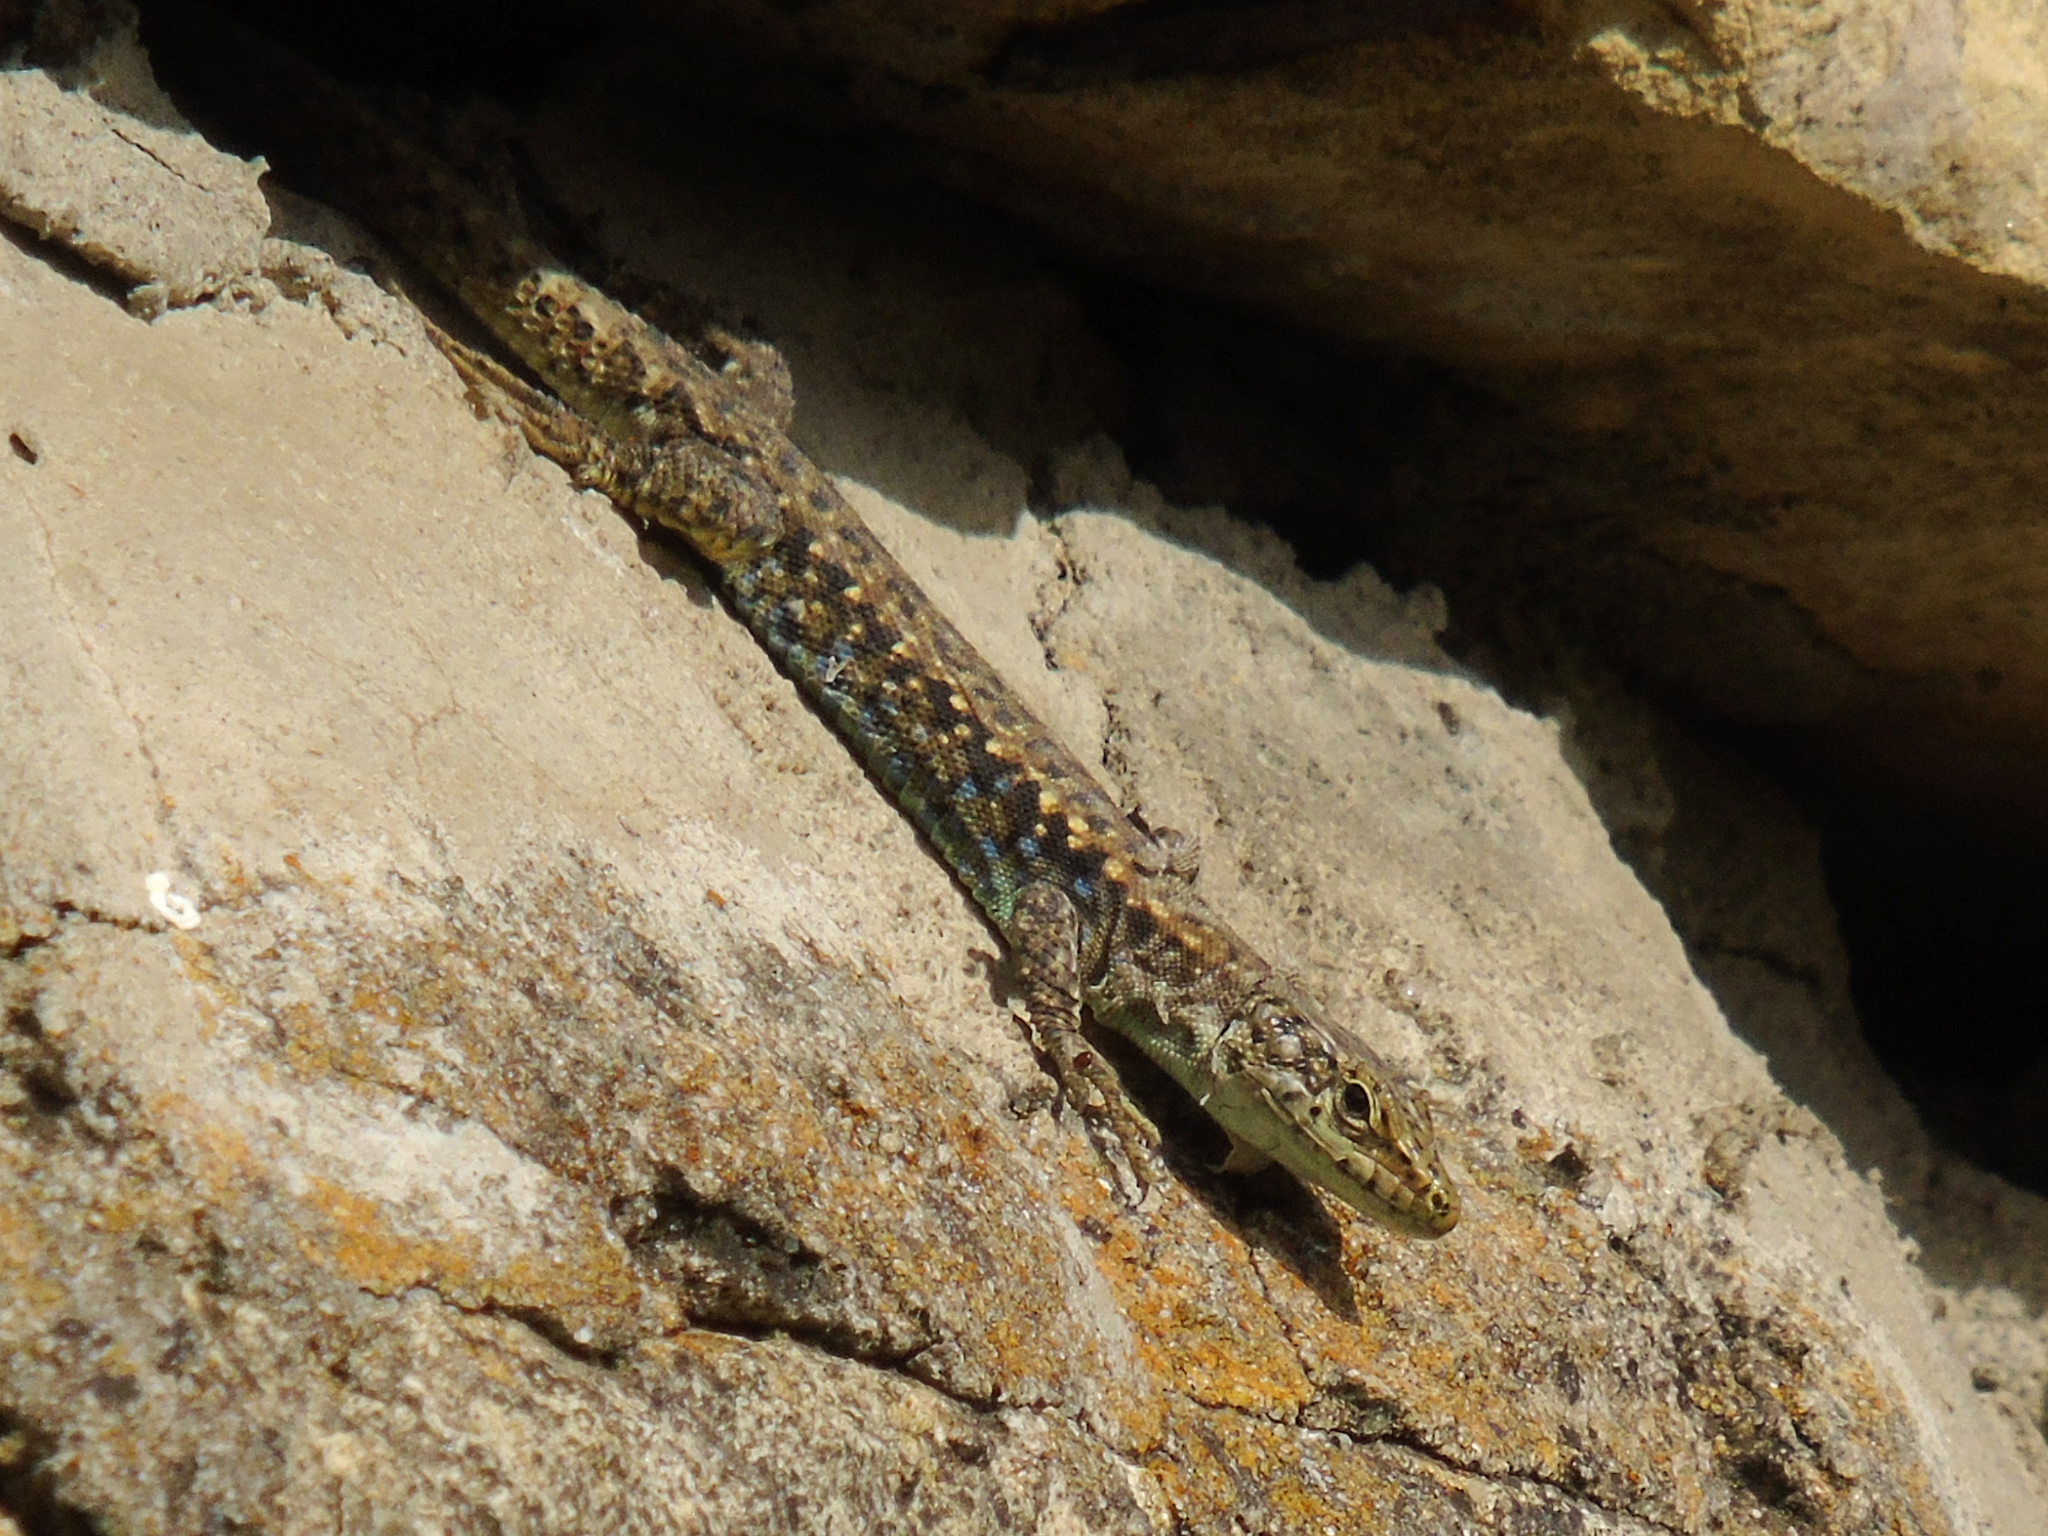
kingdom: Animalia
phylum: Chordata
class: Squamata
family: Lacertidae
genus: Darevskia
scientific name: Darevskia rudis
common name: Spiny-tailed lizard
